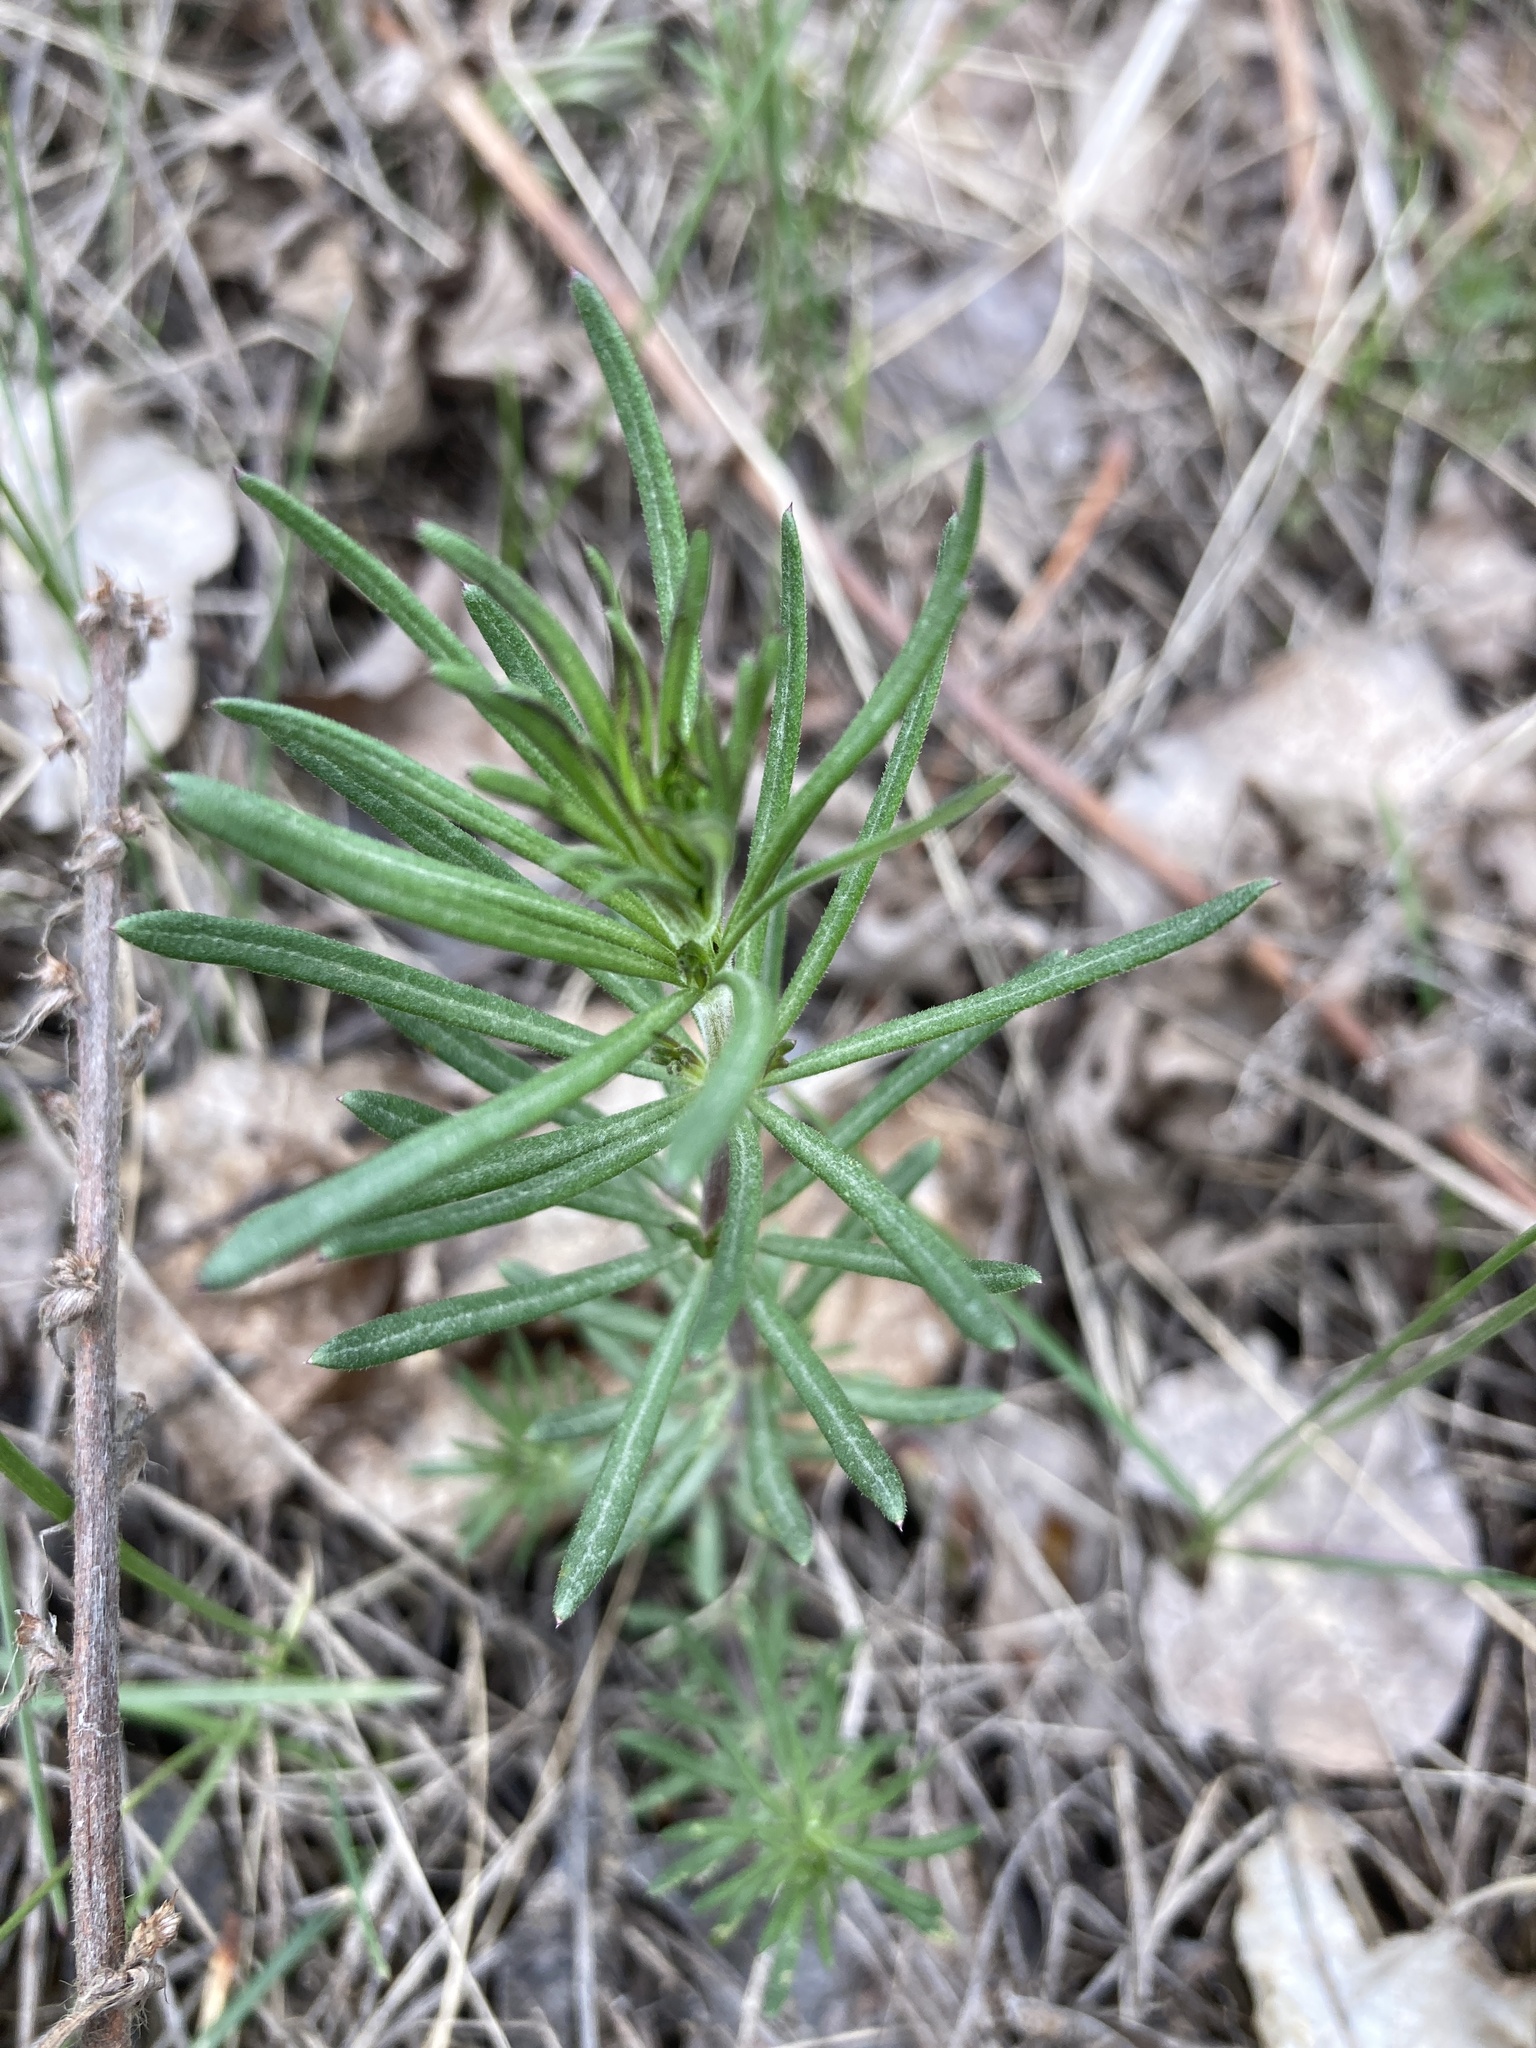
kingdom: Plantae
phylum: Tracheophyta
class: Magnoliopsida
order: Gentianales
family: Rubiaceae
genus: Galium
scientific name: Galium verum
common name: Lady's bedstraw
